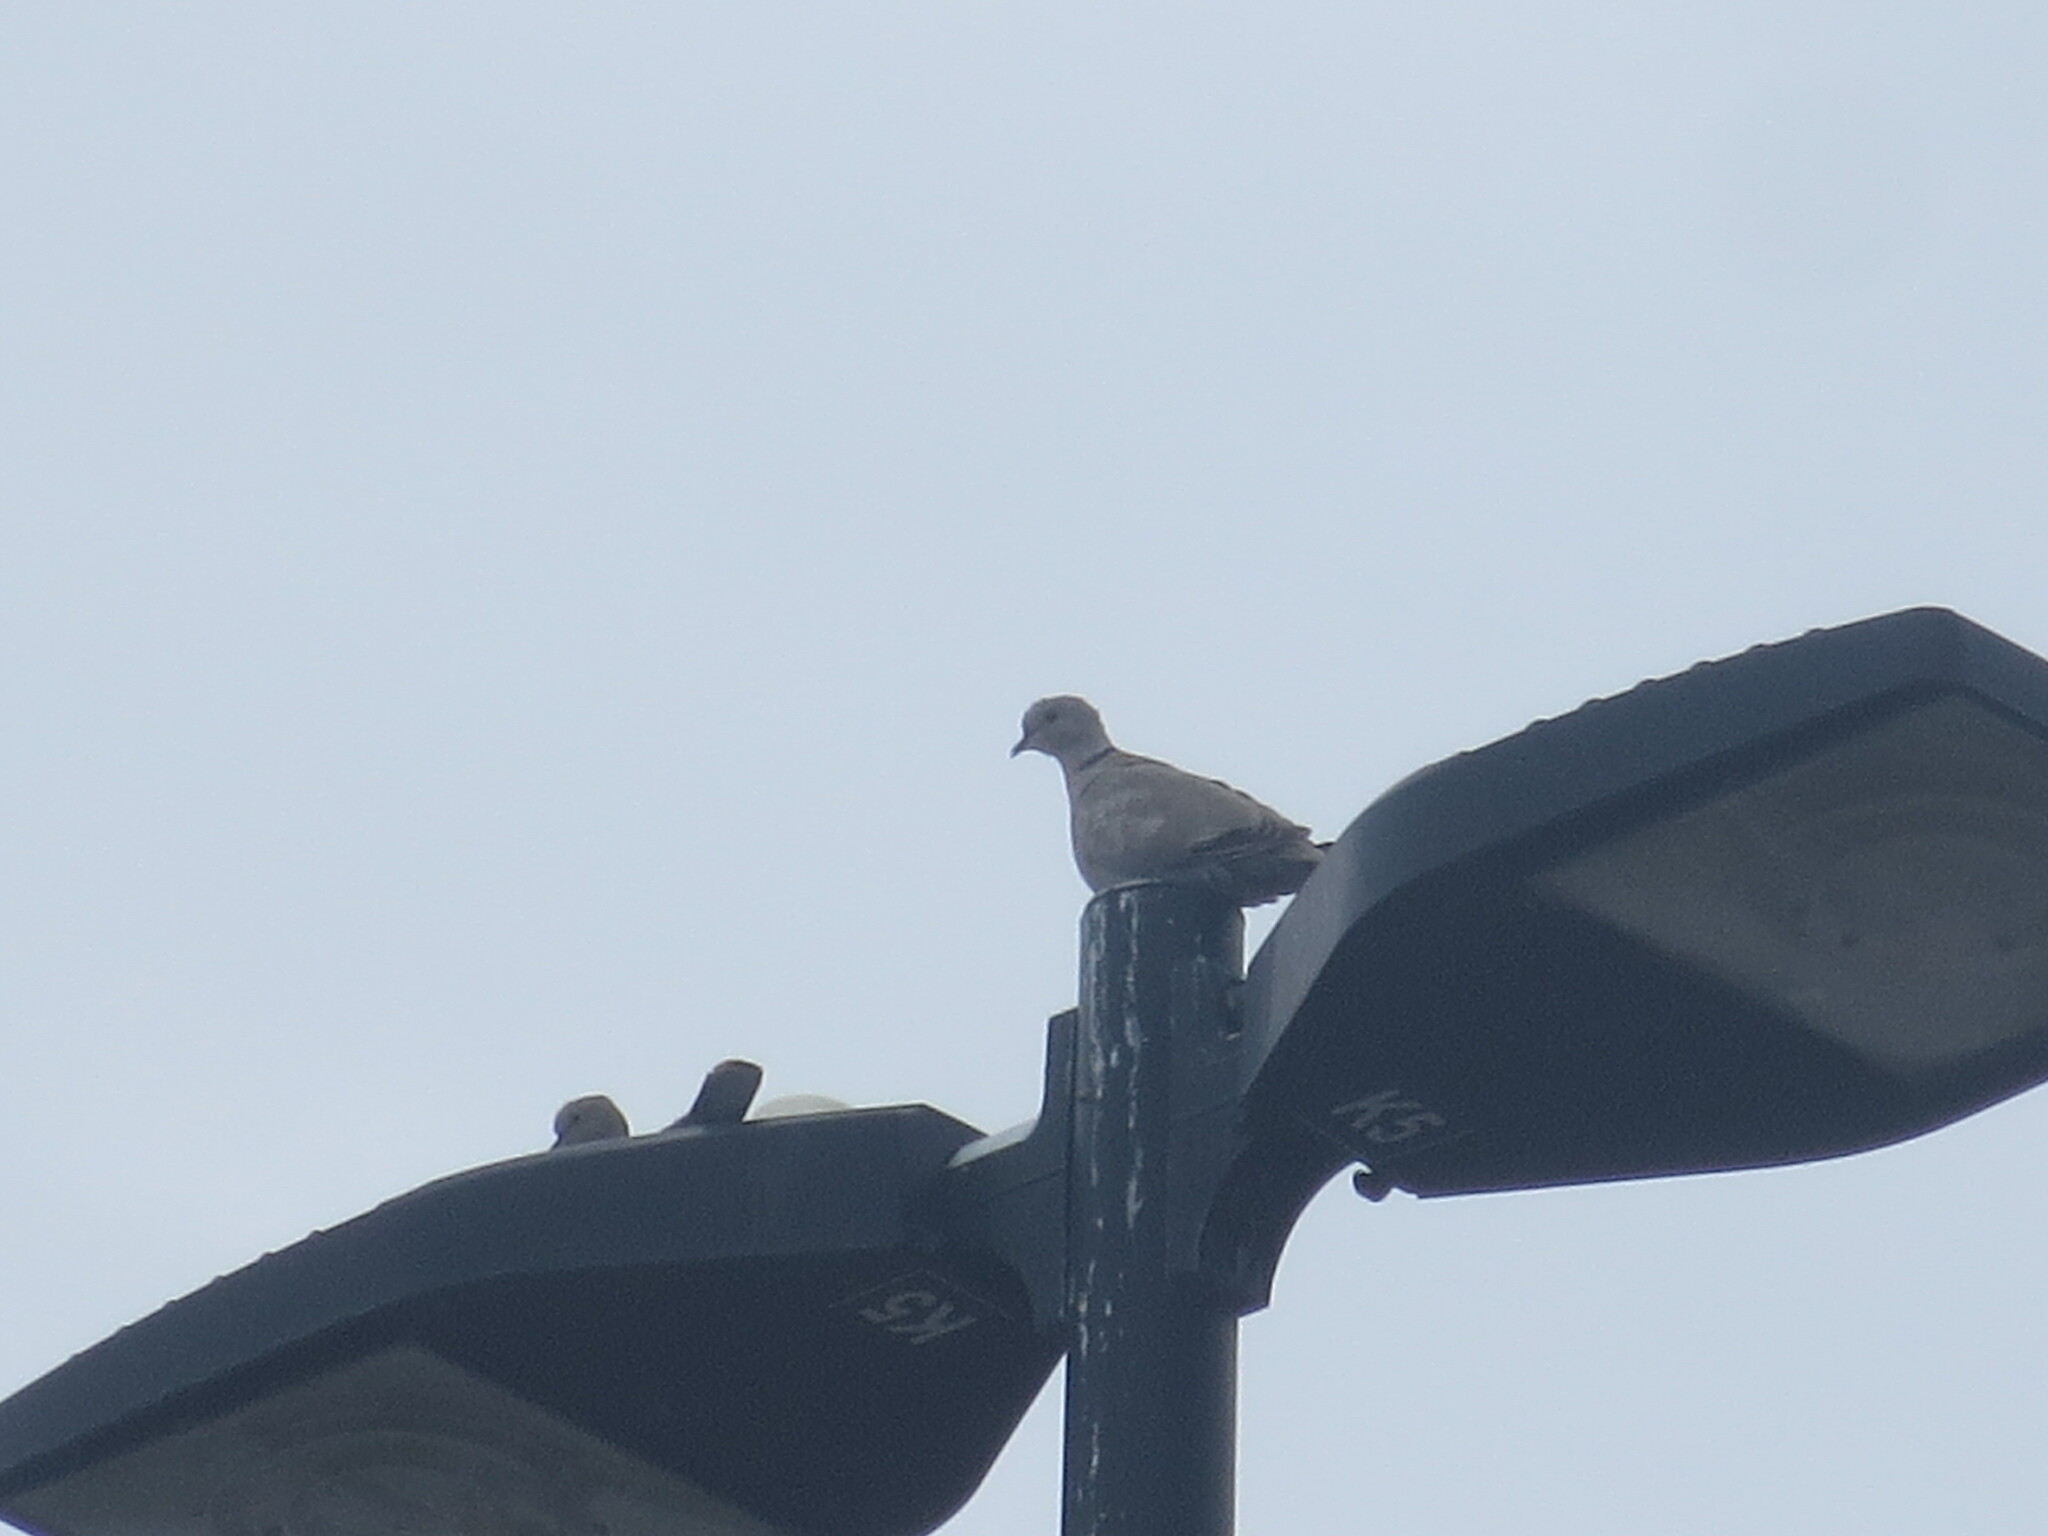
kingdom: Animalia
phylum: Chordata
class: Aves
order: Columbiformes
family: Columbidae
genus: Streptopelia
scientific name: Streptopelia decaocto
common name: Eurasian collared dove
